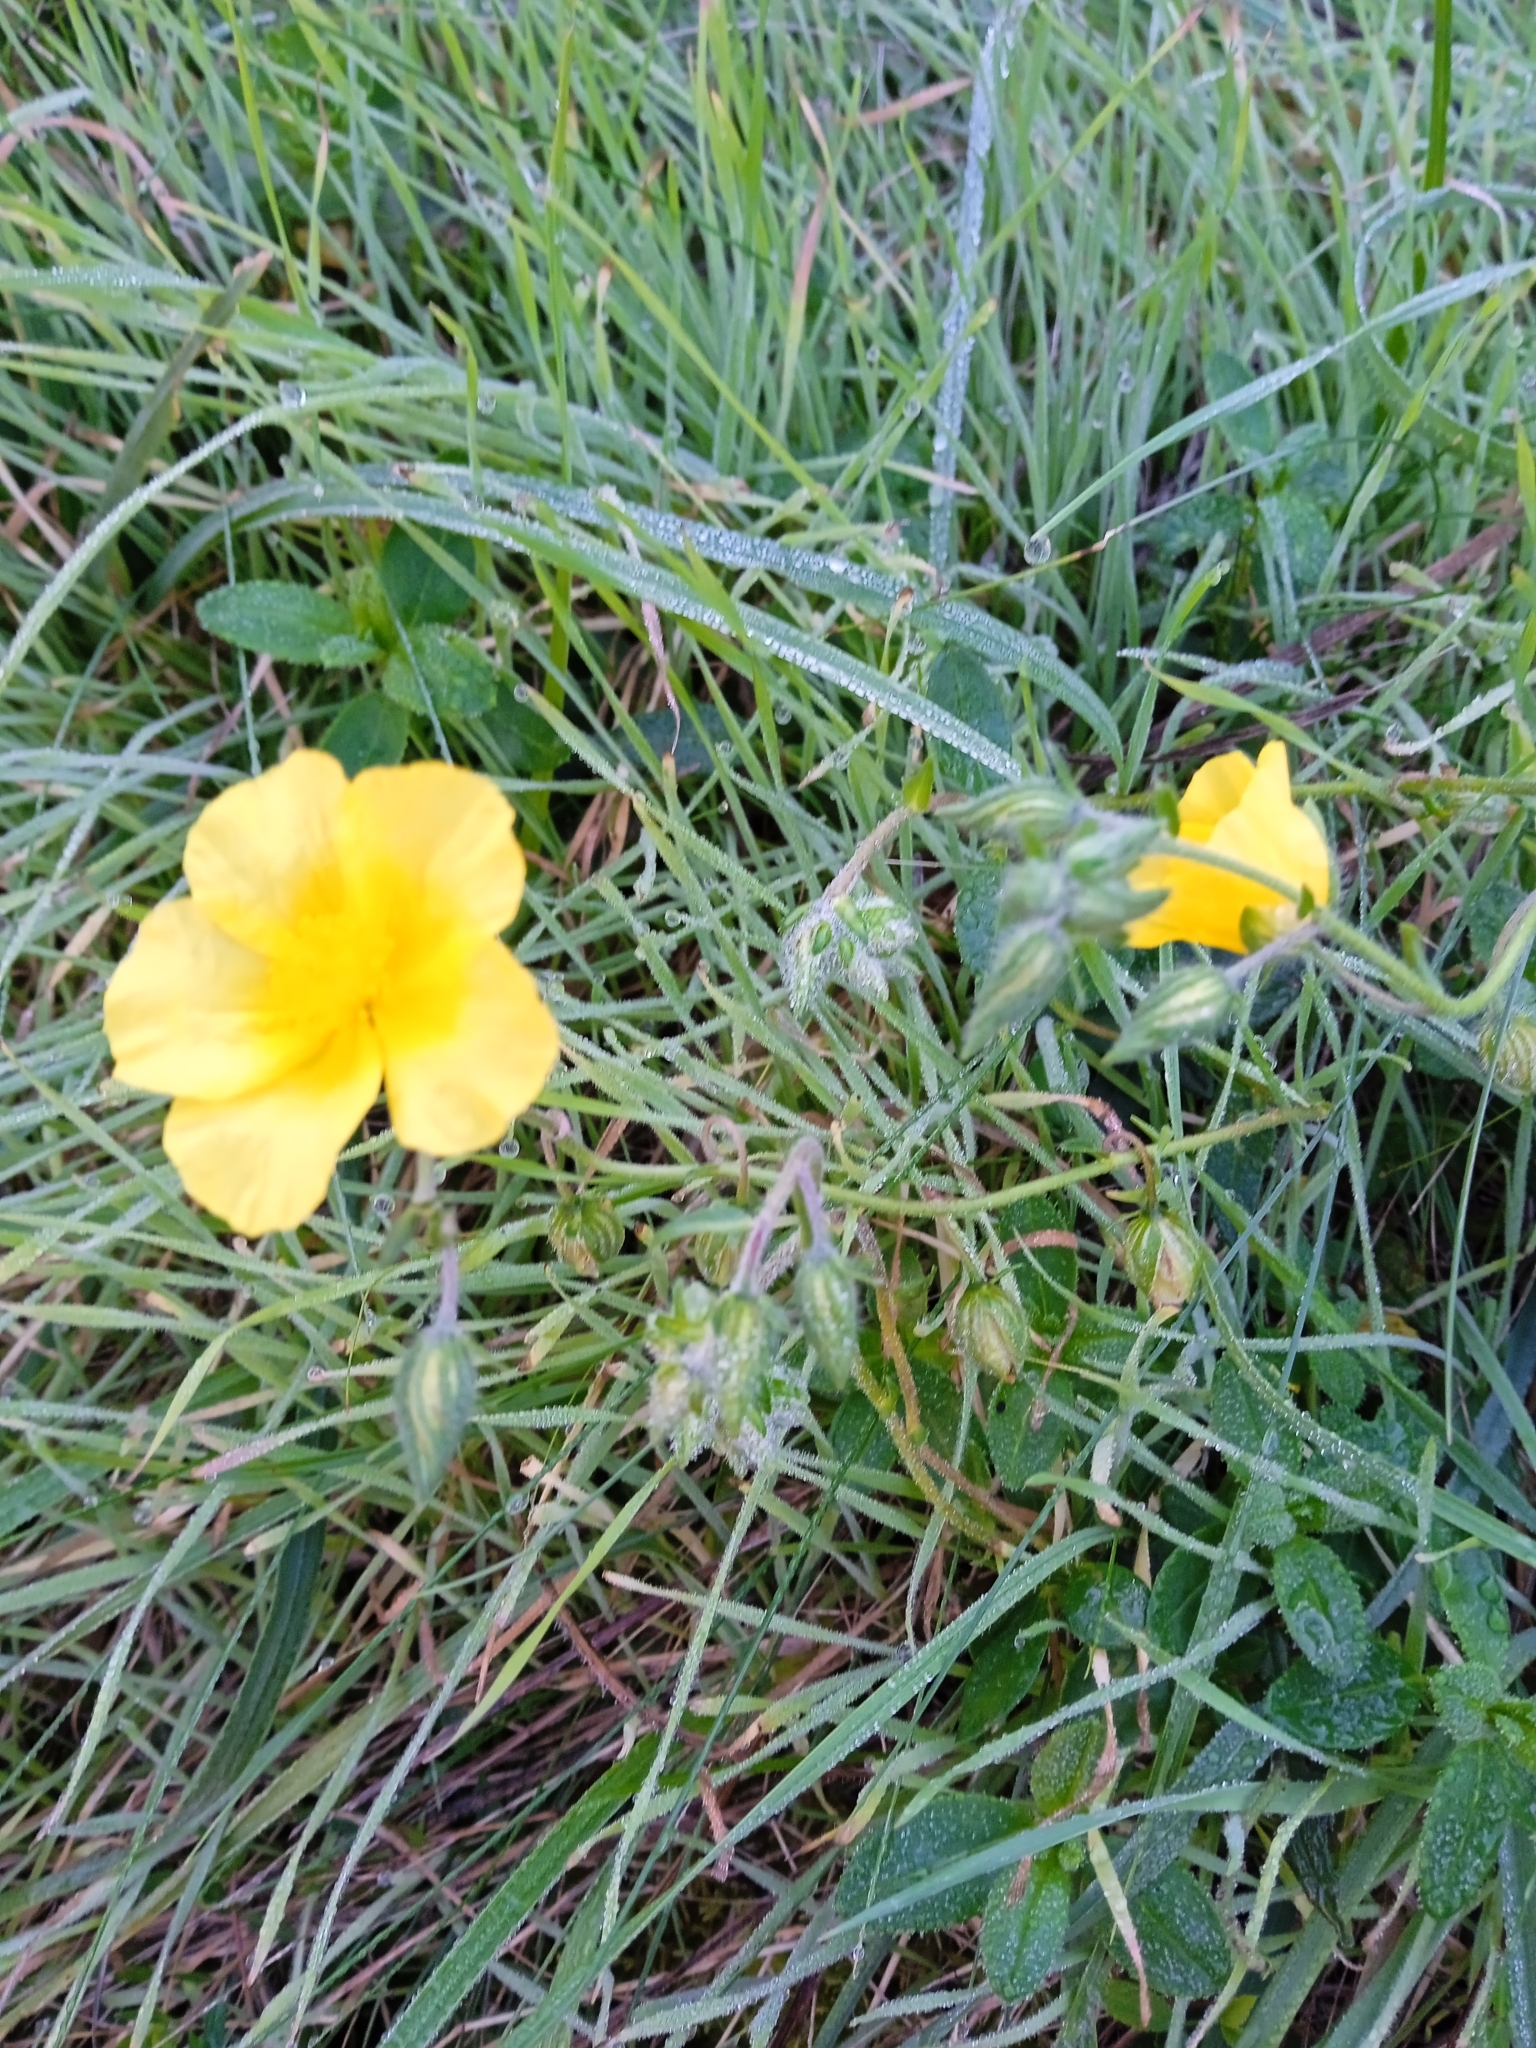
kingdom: Plantae
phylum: Tracheophyta
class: Magnoliopsida
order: Malvales
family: Cistaceae
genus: Helianthemum
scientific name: Helianthemum nummularium
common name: Common rock-rose
